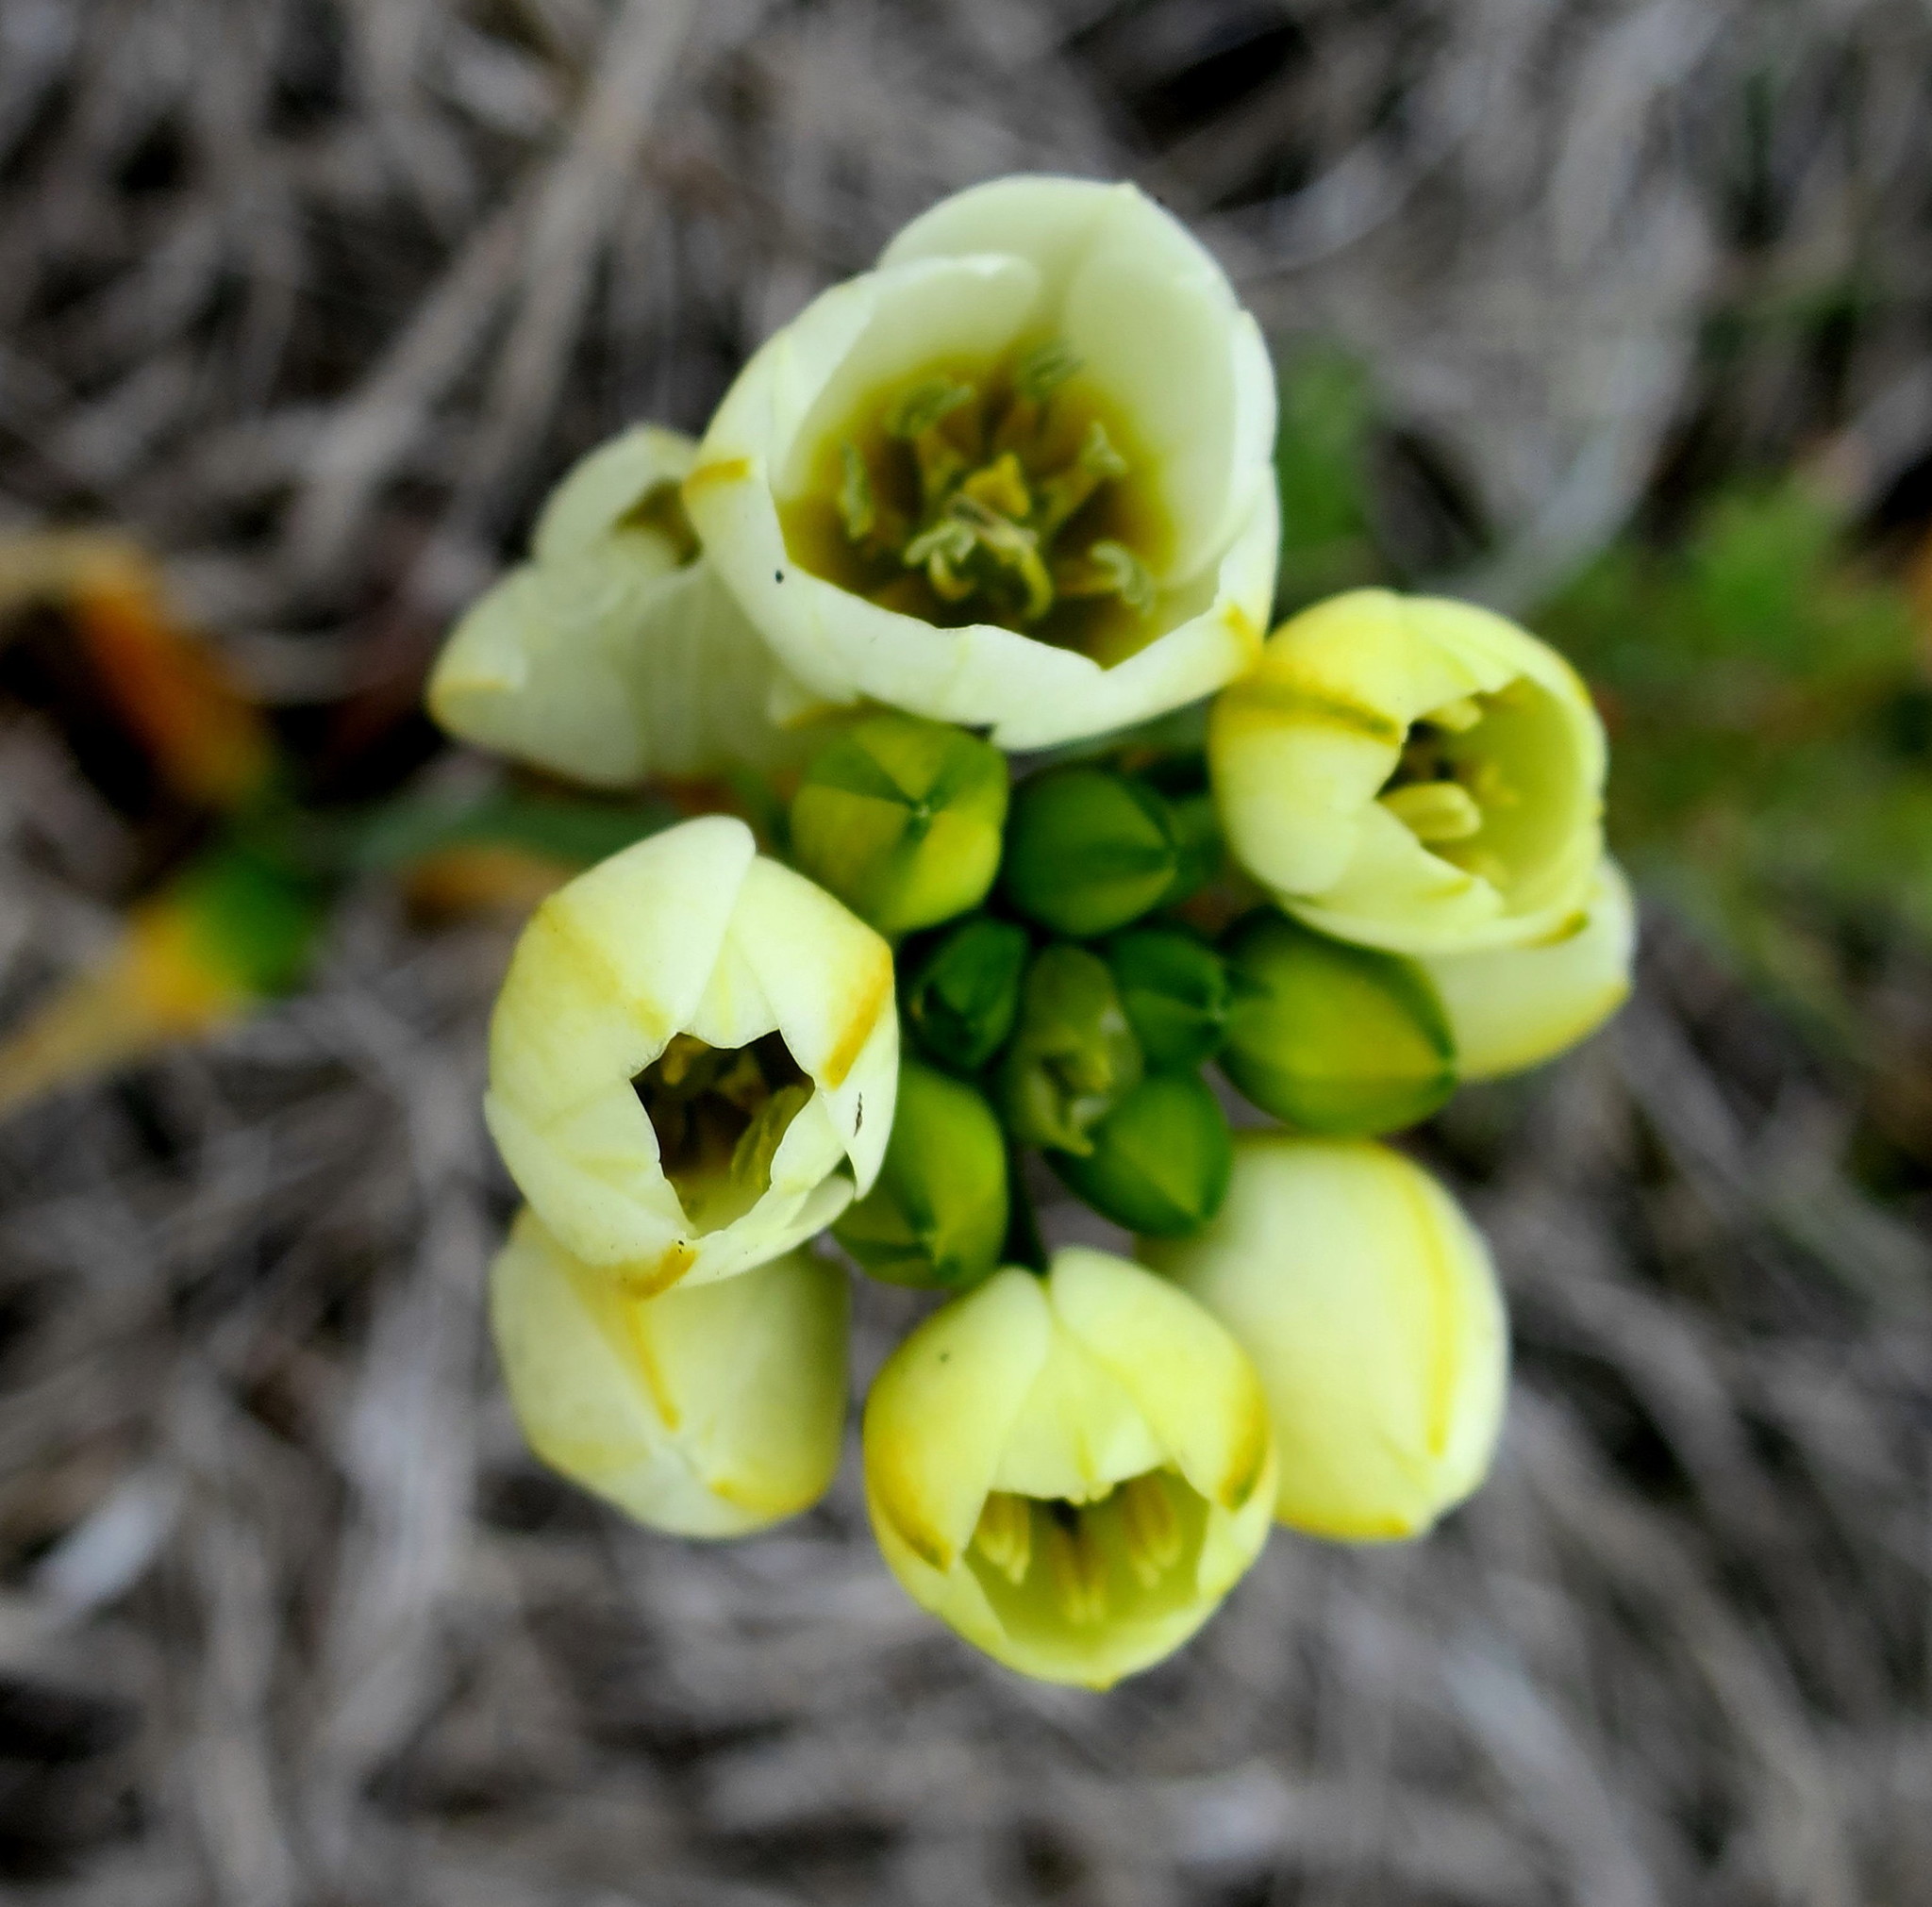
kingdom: Plantae
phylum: Tracheophyta
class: Liliopsida
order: Asparagales
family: Asparagaceae
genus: Ornithogalum
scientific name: Ornithogalum dubium
